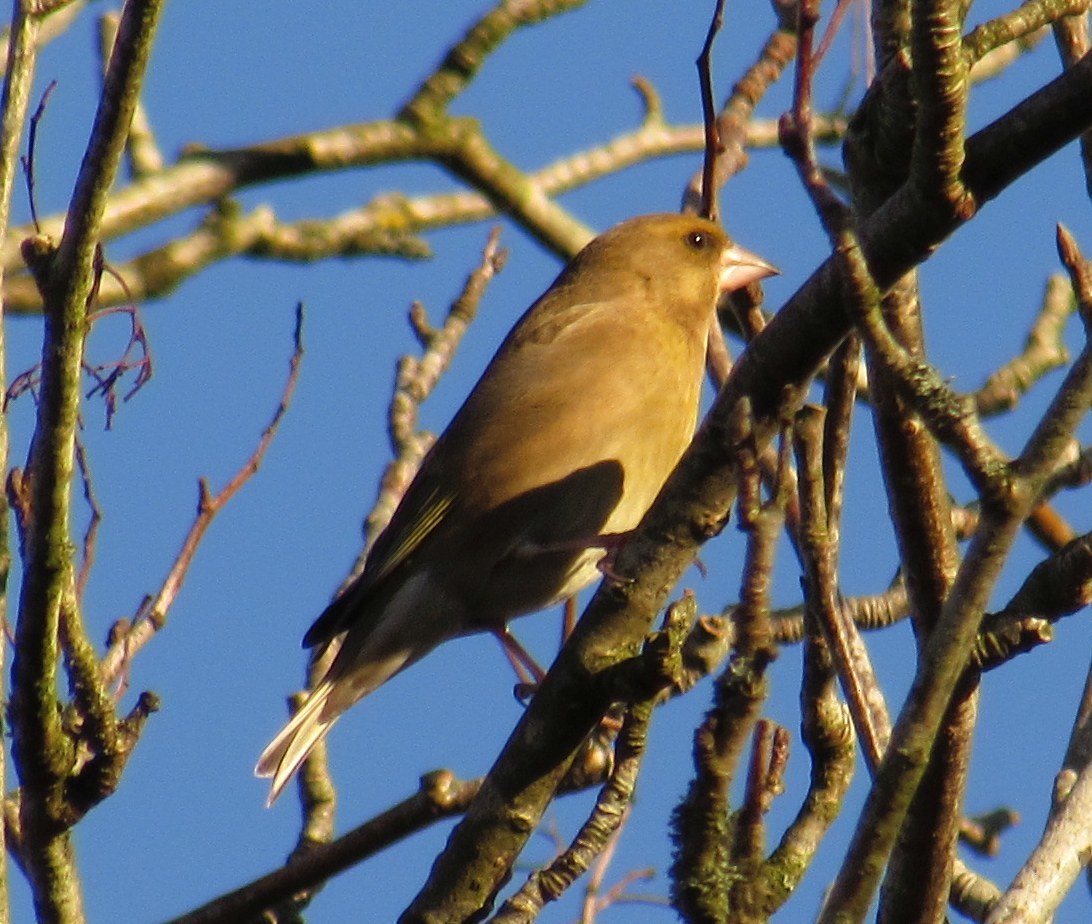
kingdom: Plantae
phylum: Tracheophyta
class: Liliopsida
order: Poales
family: Poaceae
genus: Chloris
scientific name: Chloris chloris
